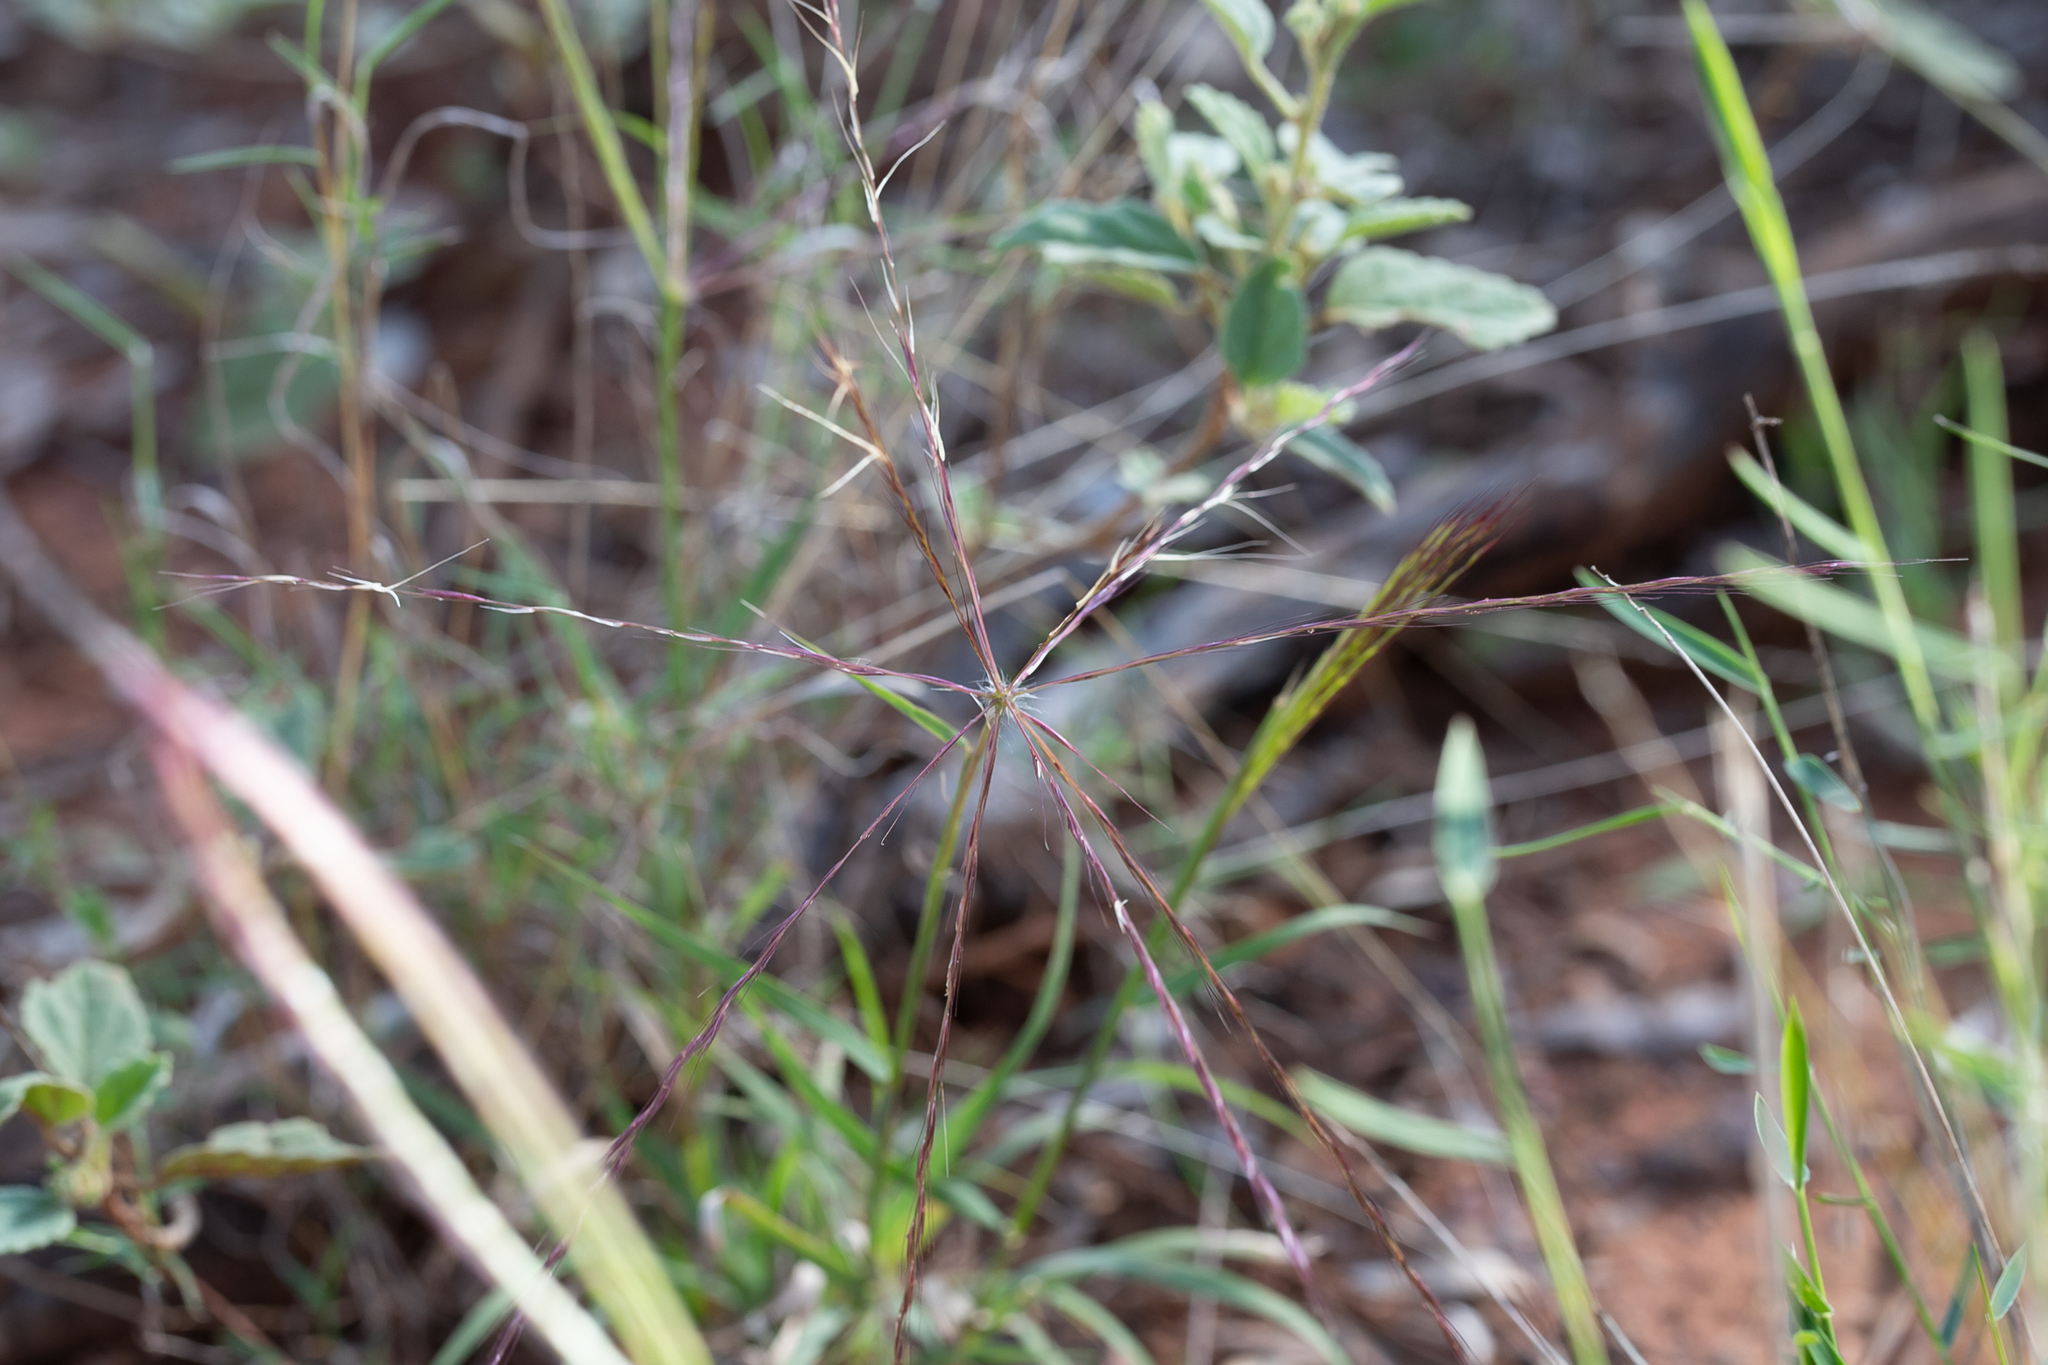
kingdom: Plantae
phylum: Tracheophyta
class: Liliopsida
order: Poales
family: Poaceae
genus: Enteropogon
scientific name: Enteropogon acicularis
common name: Curly windmill grass
